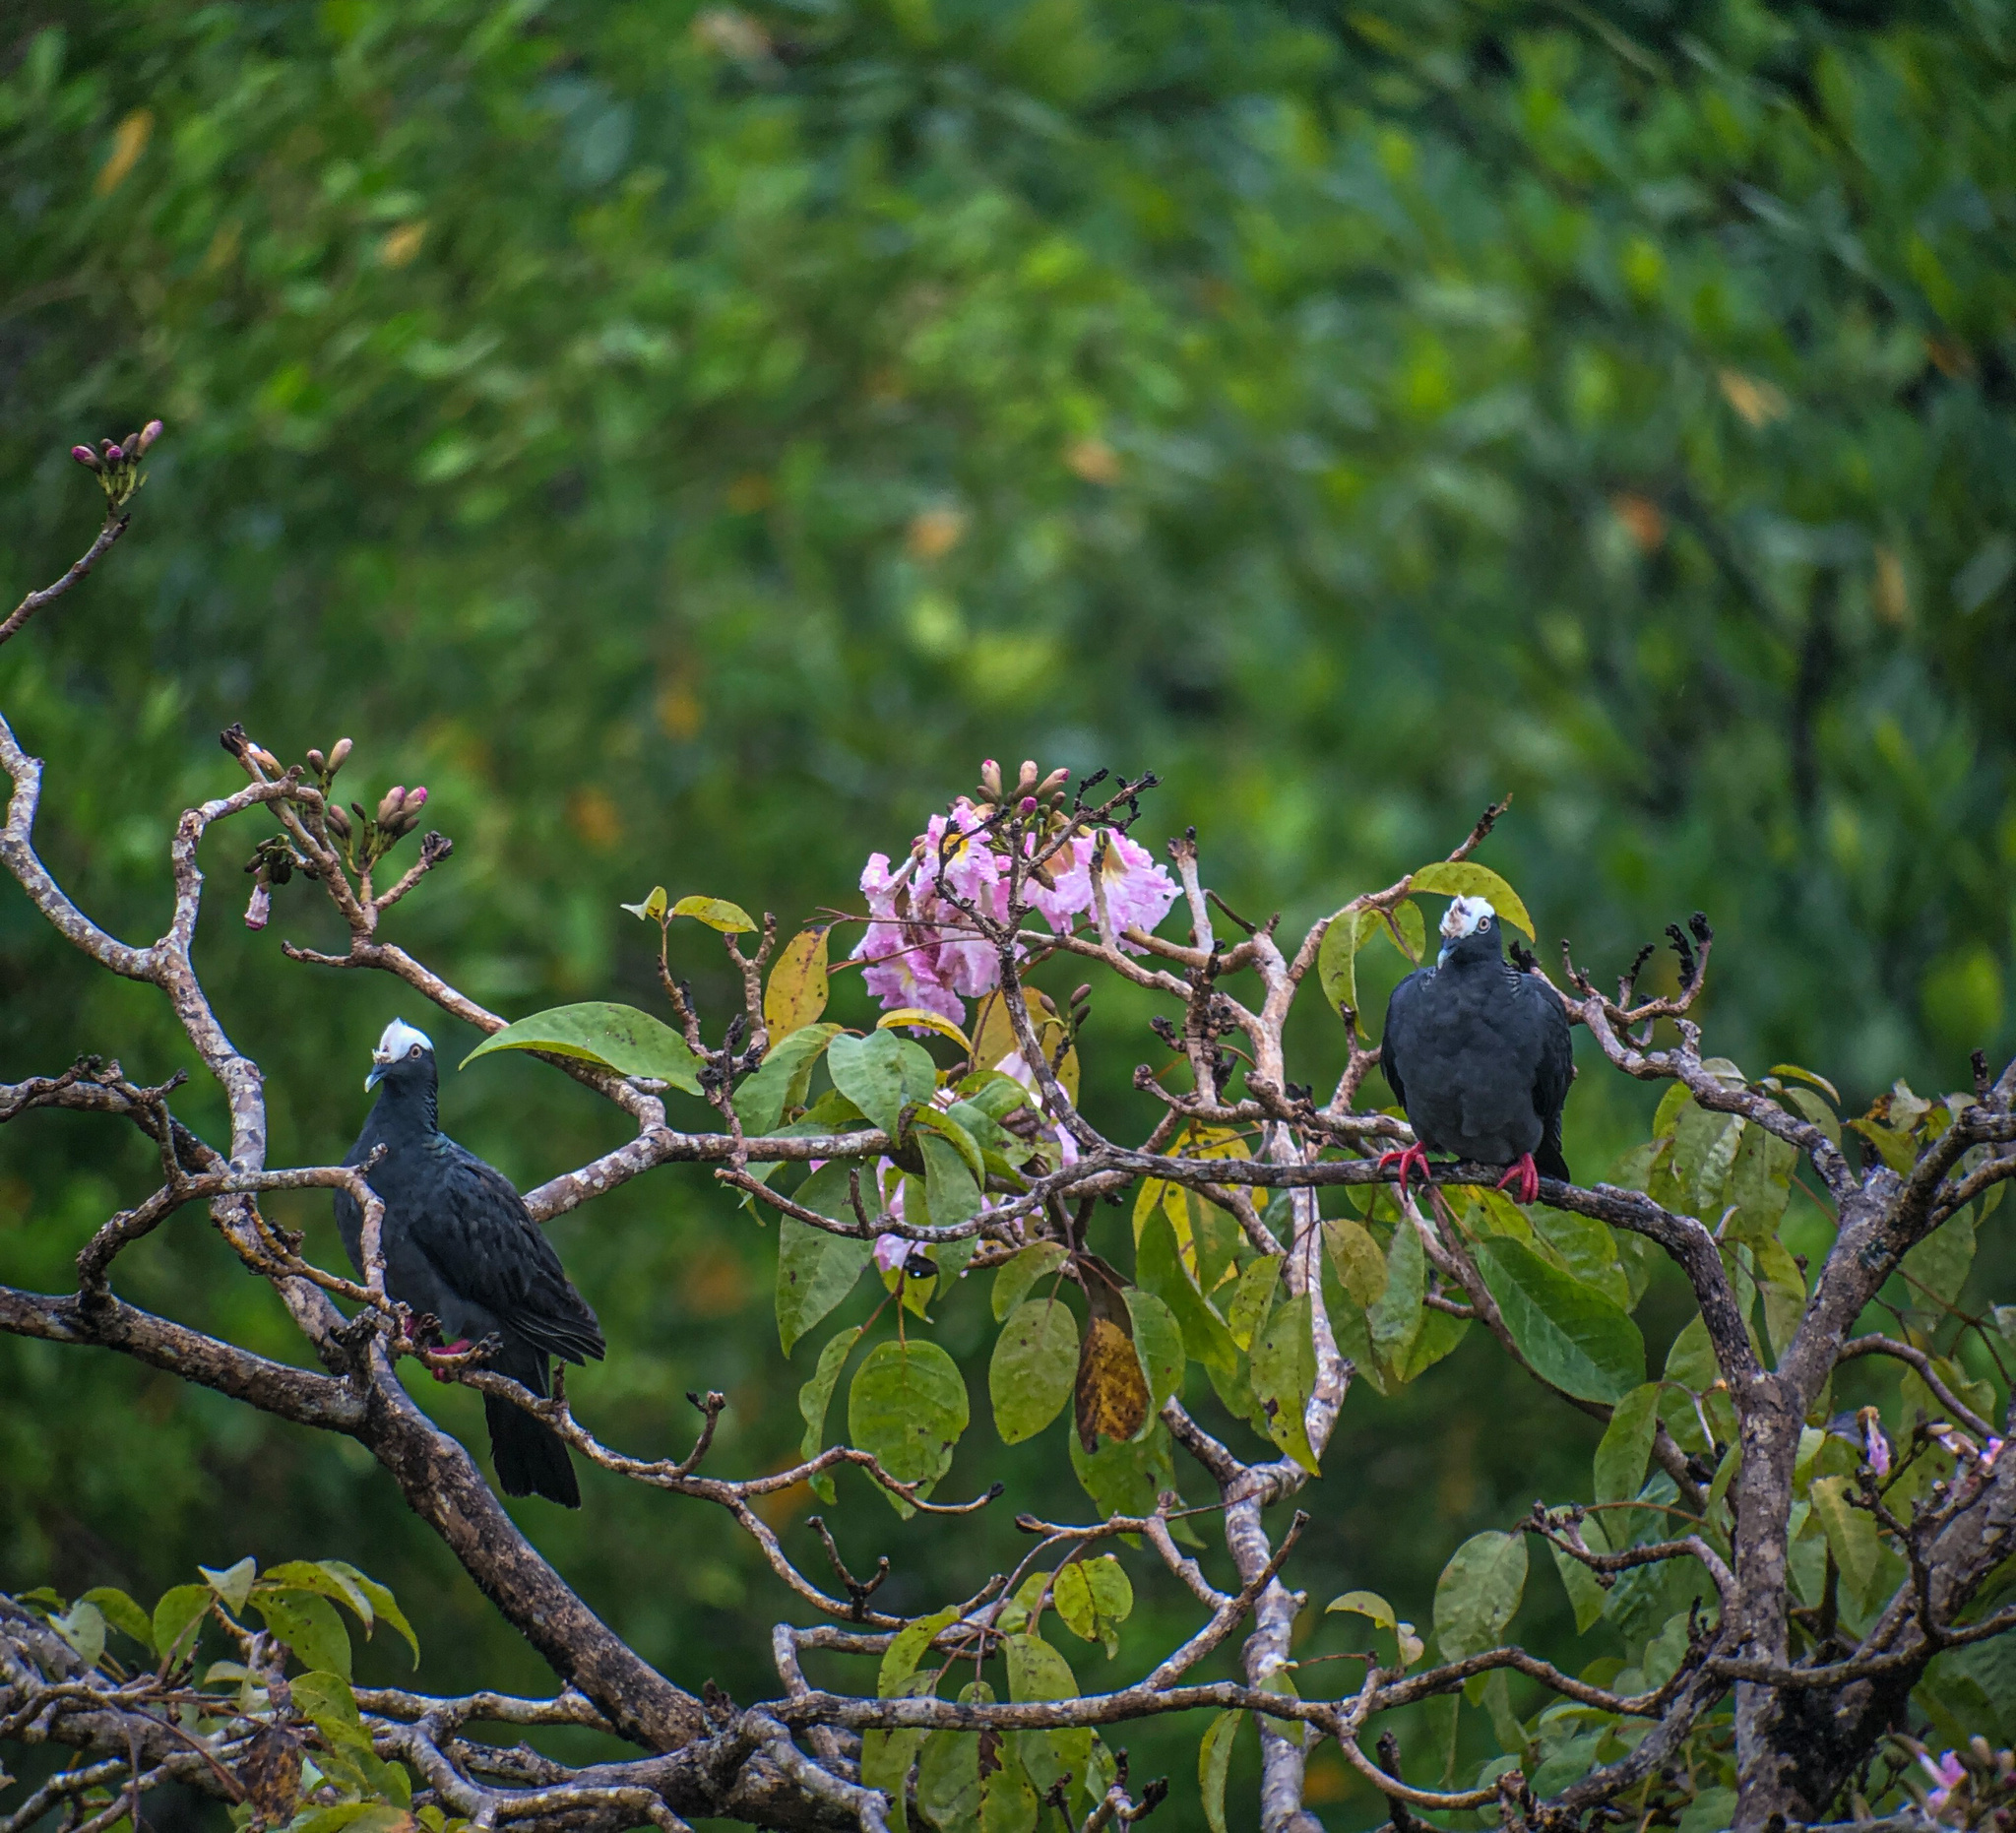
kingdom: Animalia
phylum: Chordata
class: Aves
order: Columbiformes
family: Columbidae
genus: Patagioenas
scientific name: Patagioenas leucocephala
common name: White-crowned pigeon
